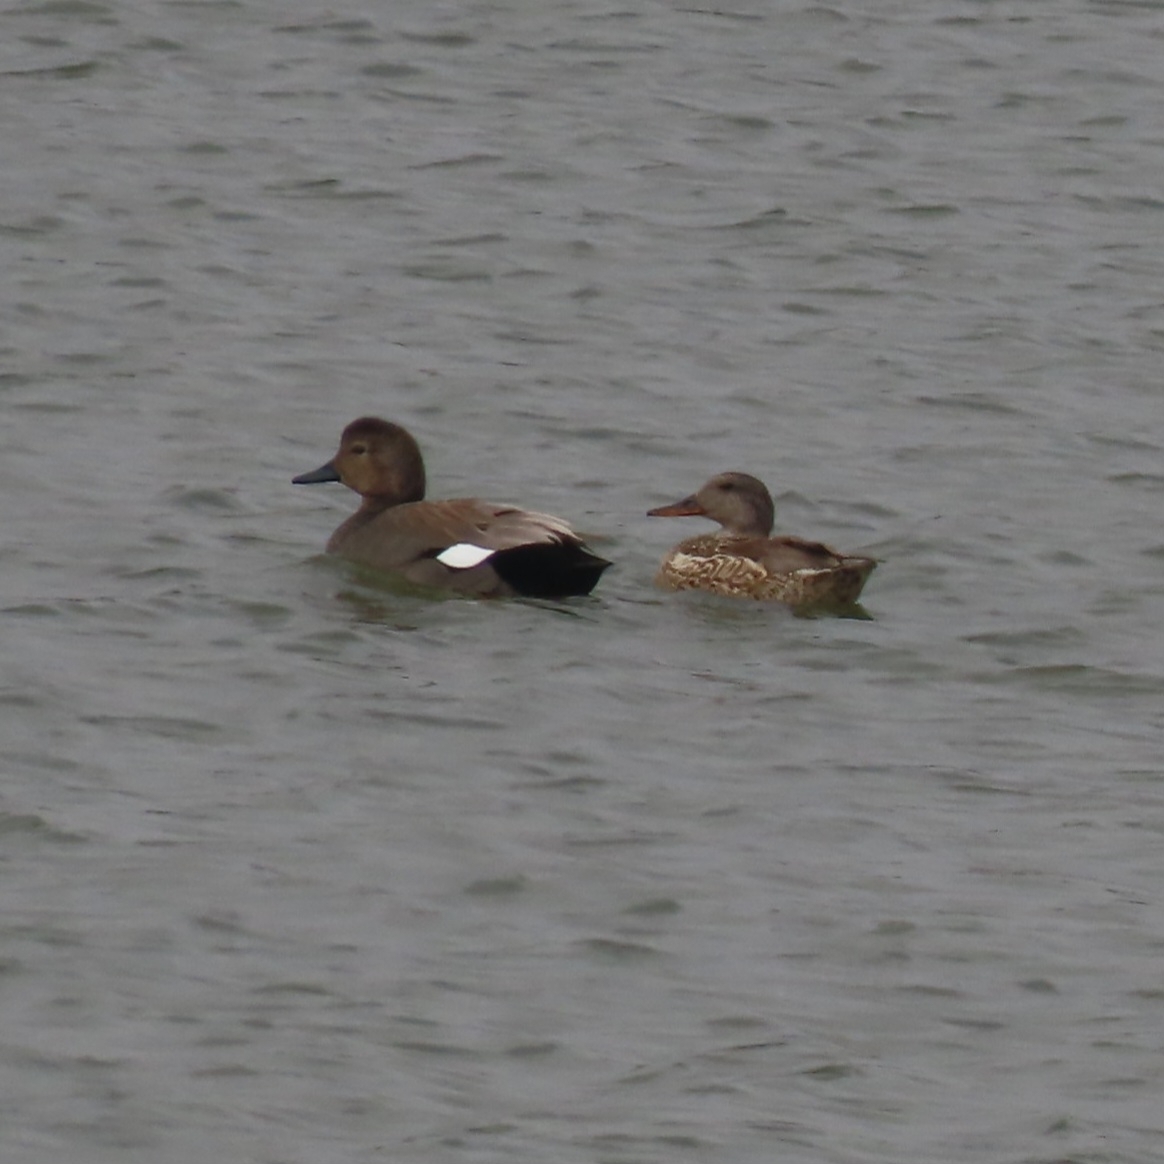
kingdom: Animalia
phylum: Chordata
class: Aves
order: Anseriformes
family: Anatidae
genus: Mareca
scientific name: Mareca strepera
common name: Gadwall
